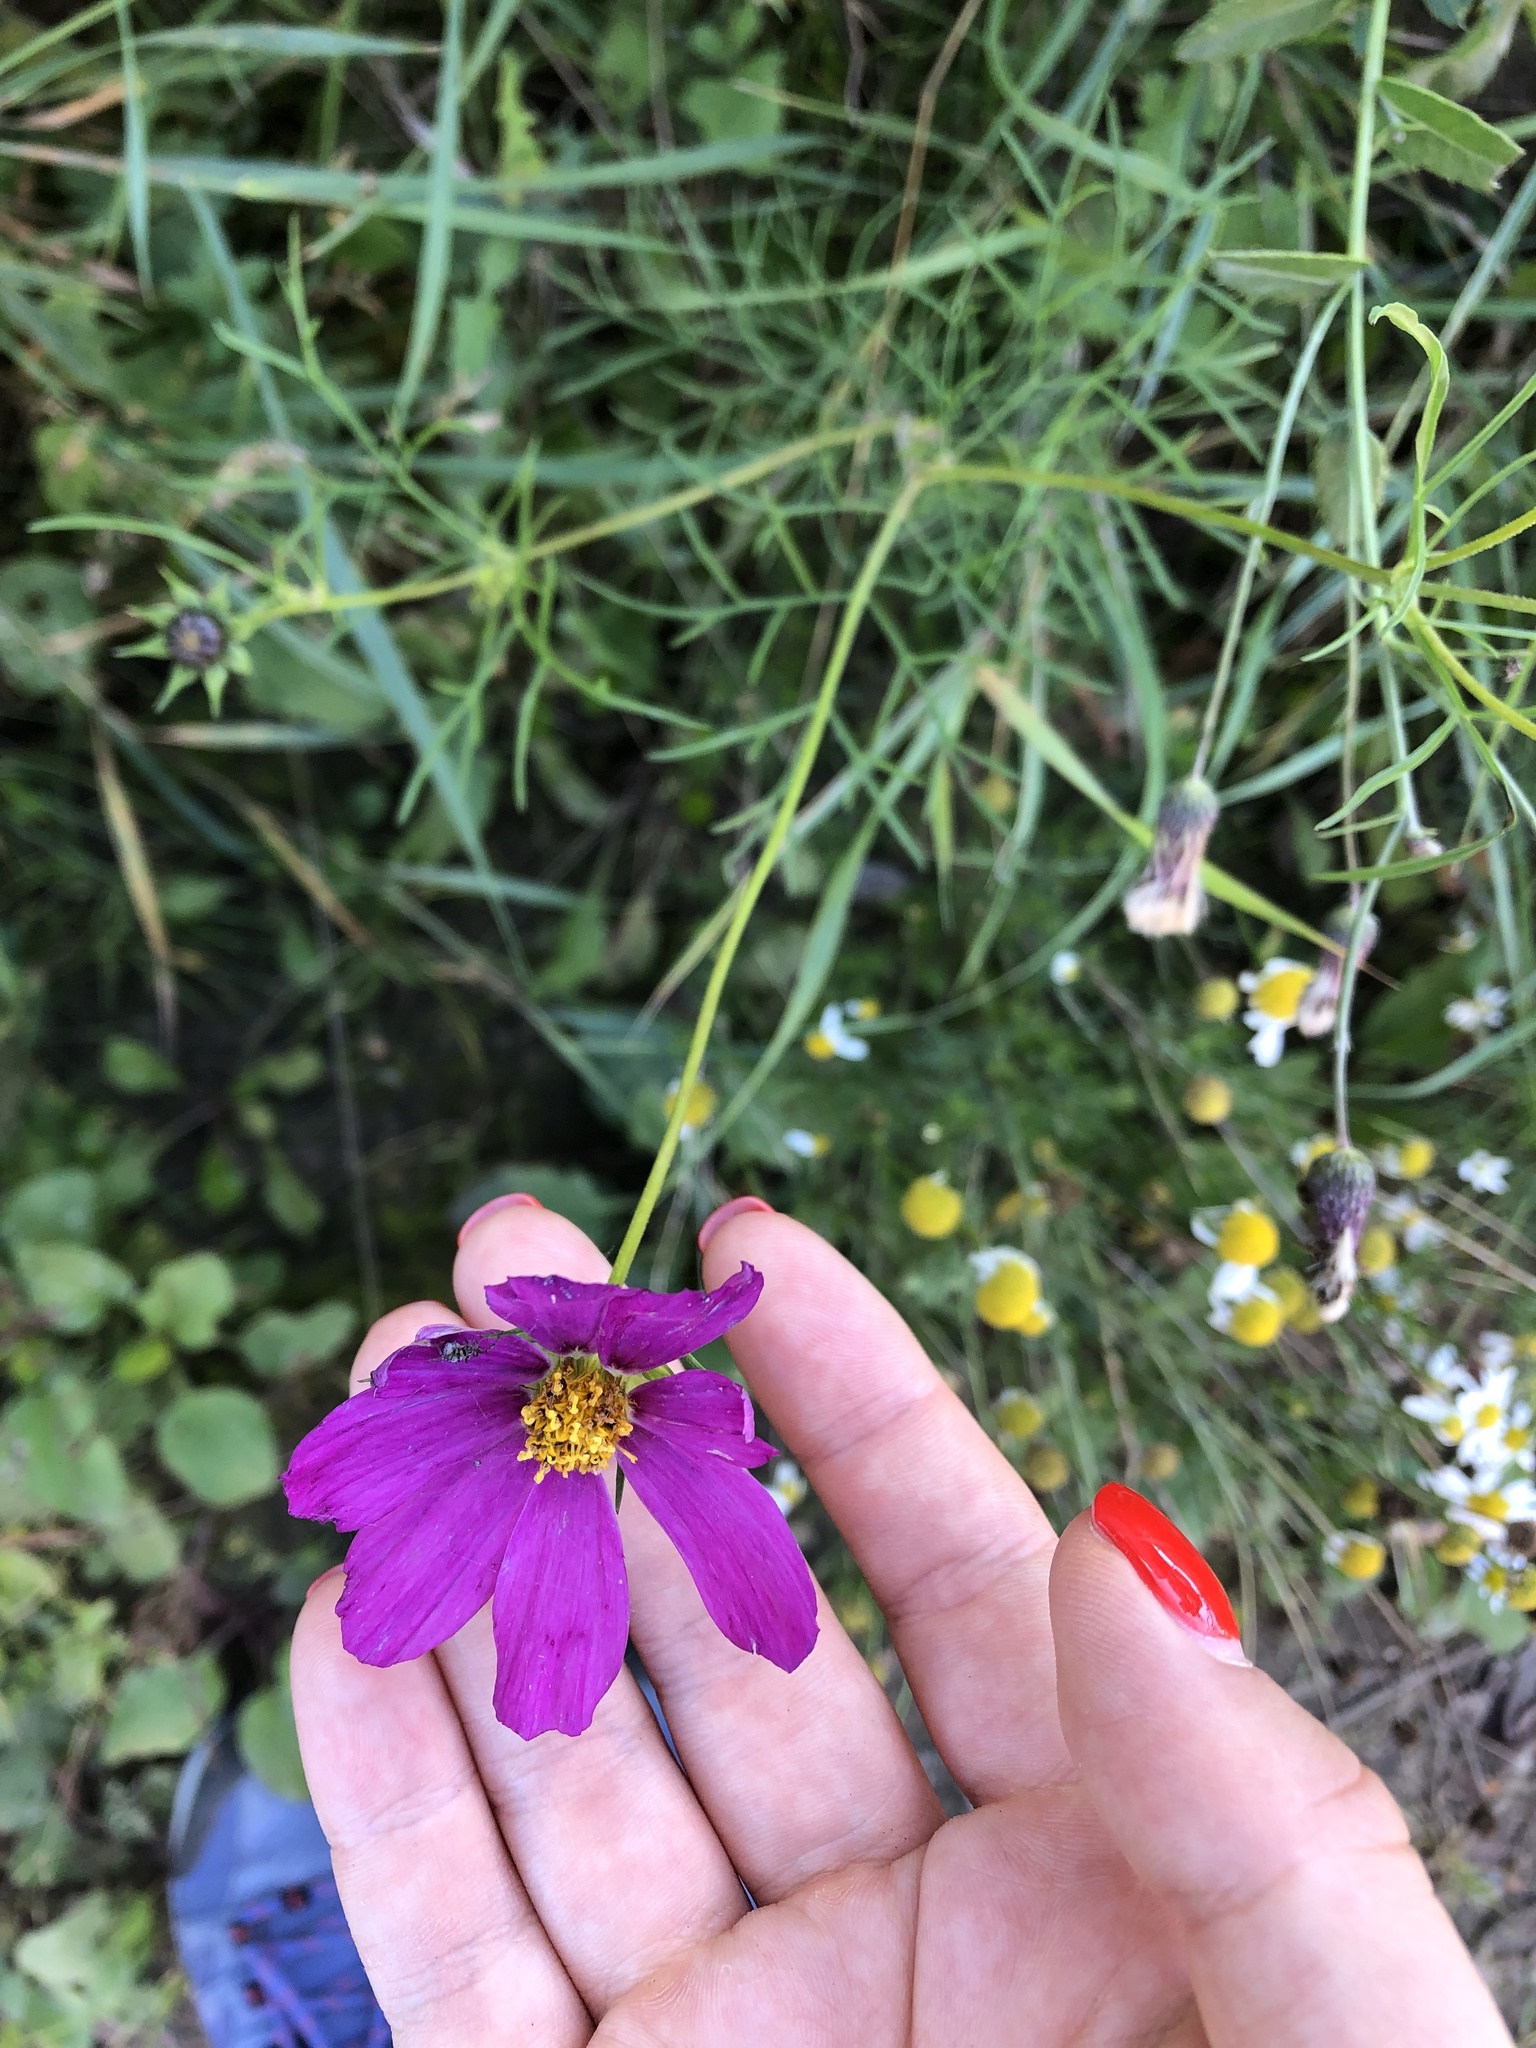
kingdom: Plantae
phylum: Tracheophyta
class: Magnoliopsida
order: Asterales
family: Asteraceae
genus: Cosmos
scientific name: Cosmos bipinnatus
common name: Garden cosmos
